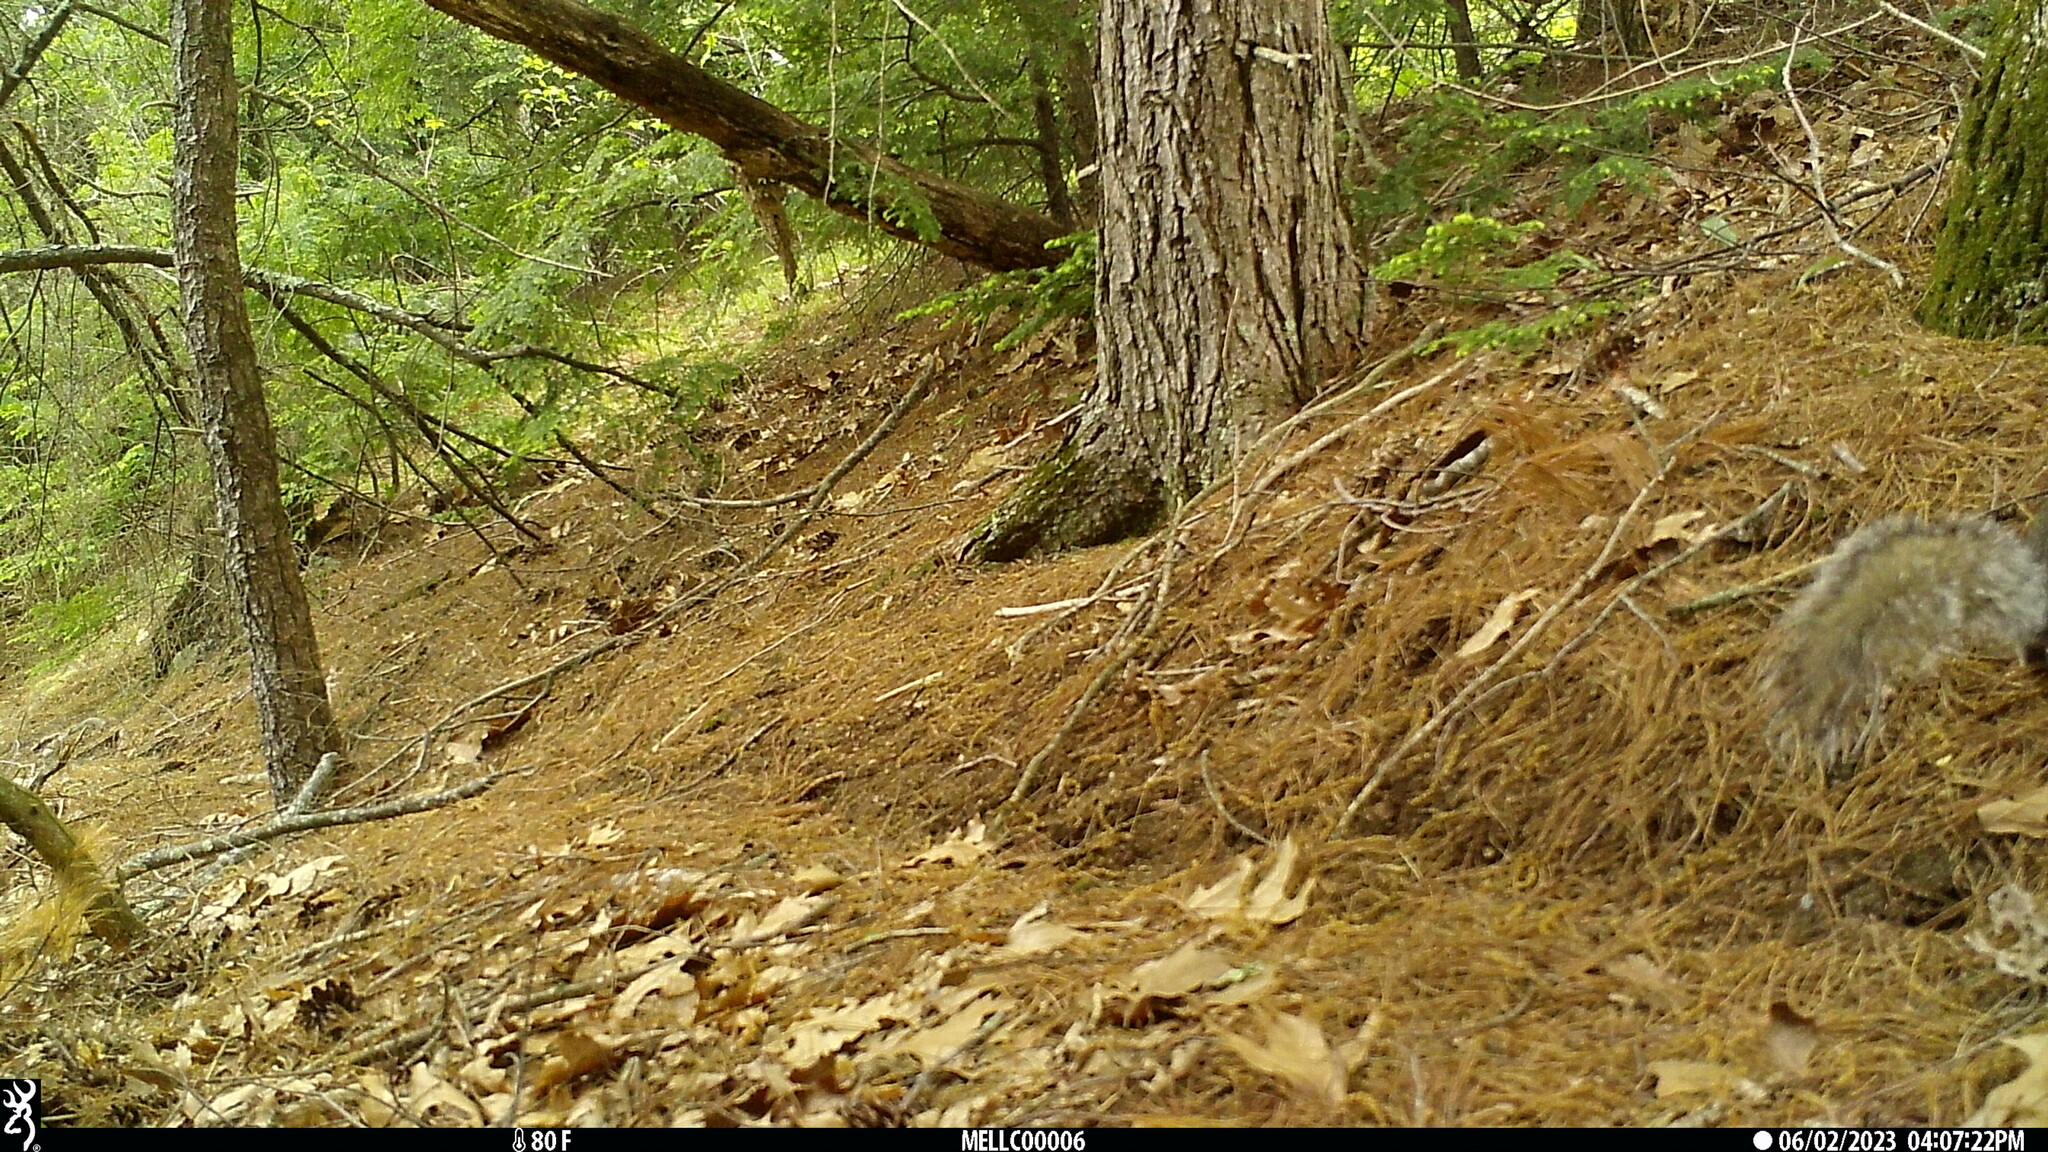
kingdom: Animalia
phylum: Chordata
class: Mammalia
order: Rodentia
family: Sciuridae
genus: Sciurus
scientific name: Sciurus carolinensis
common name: Eastern gray squirrel
